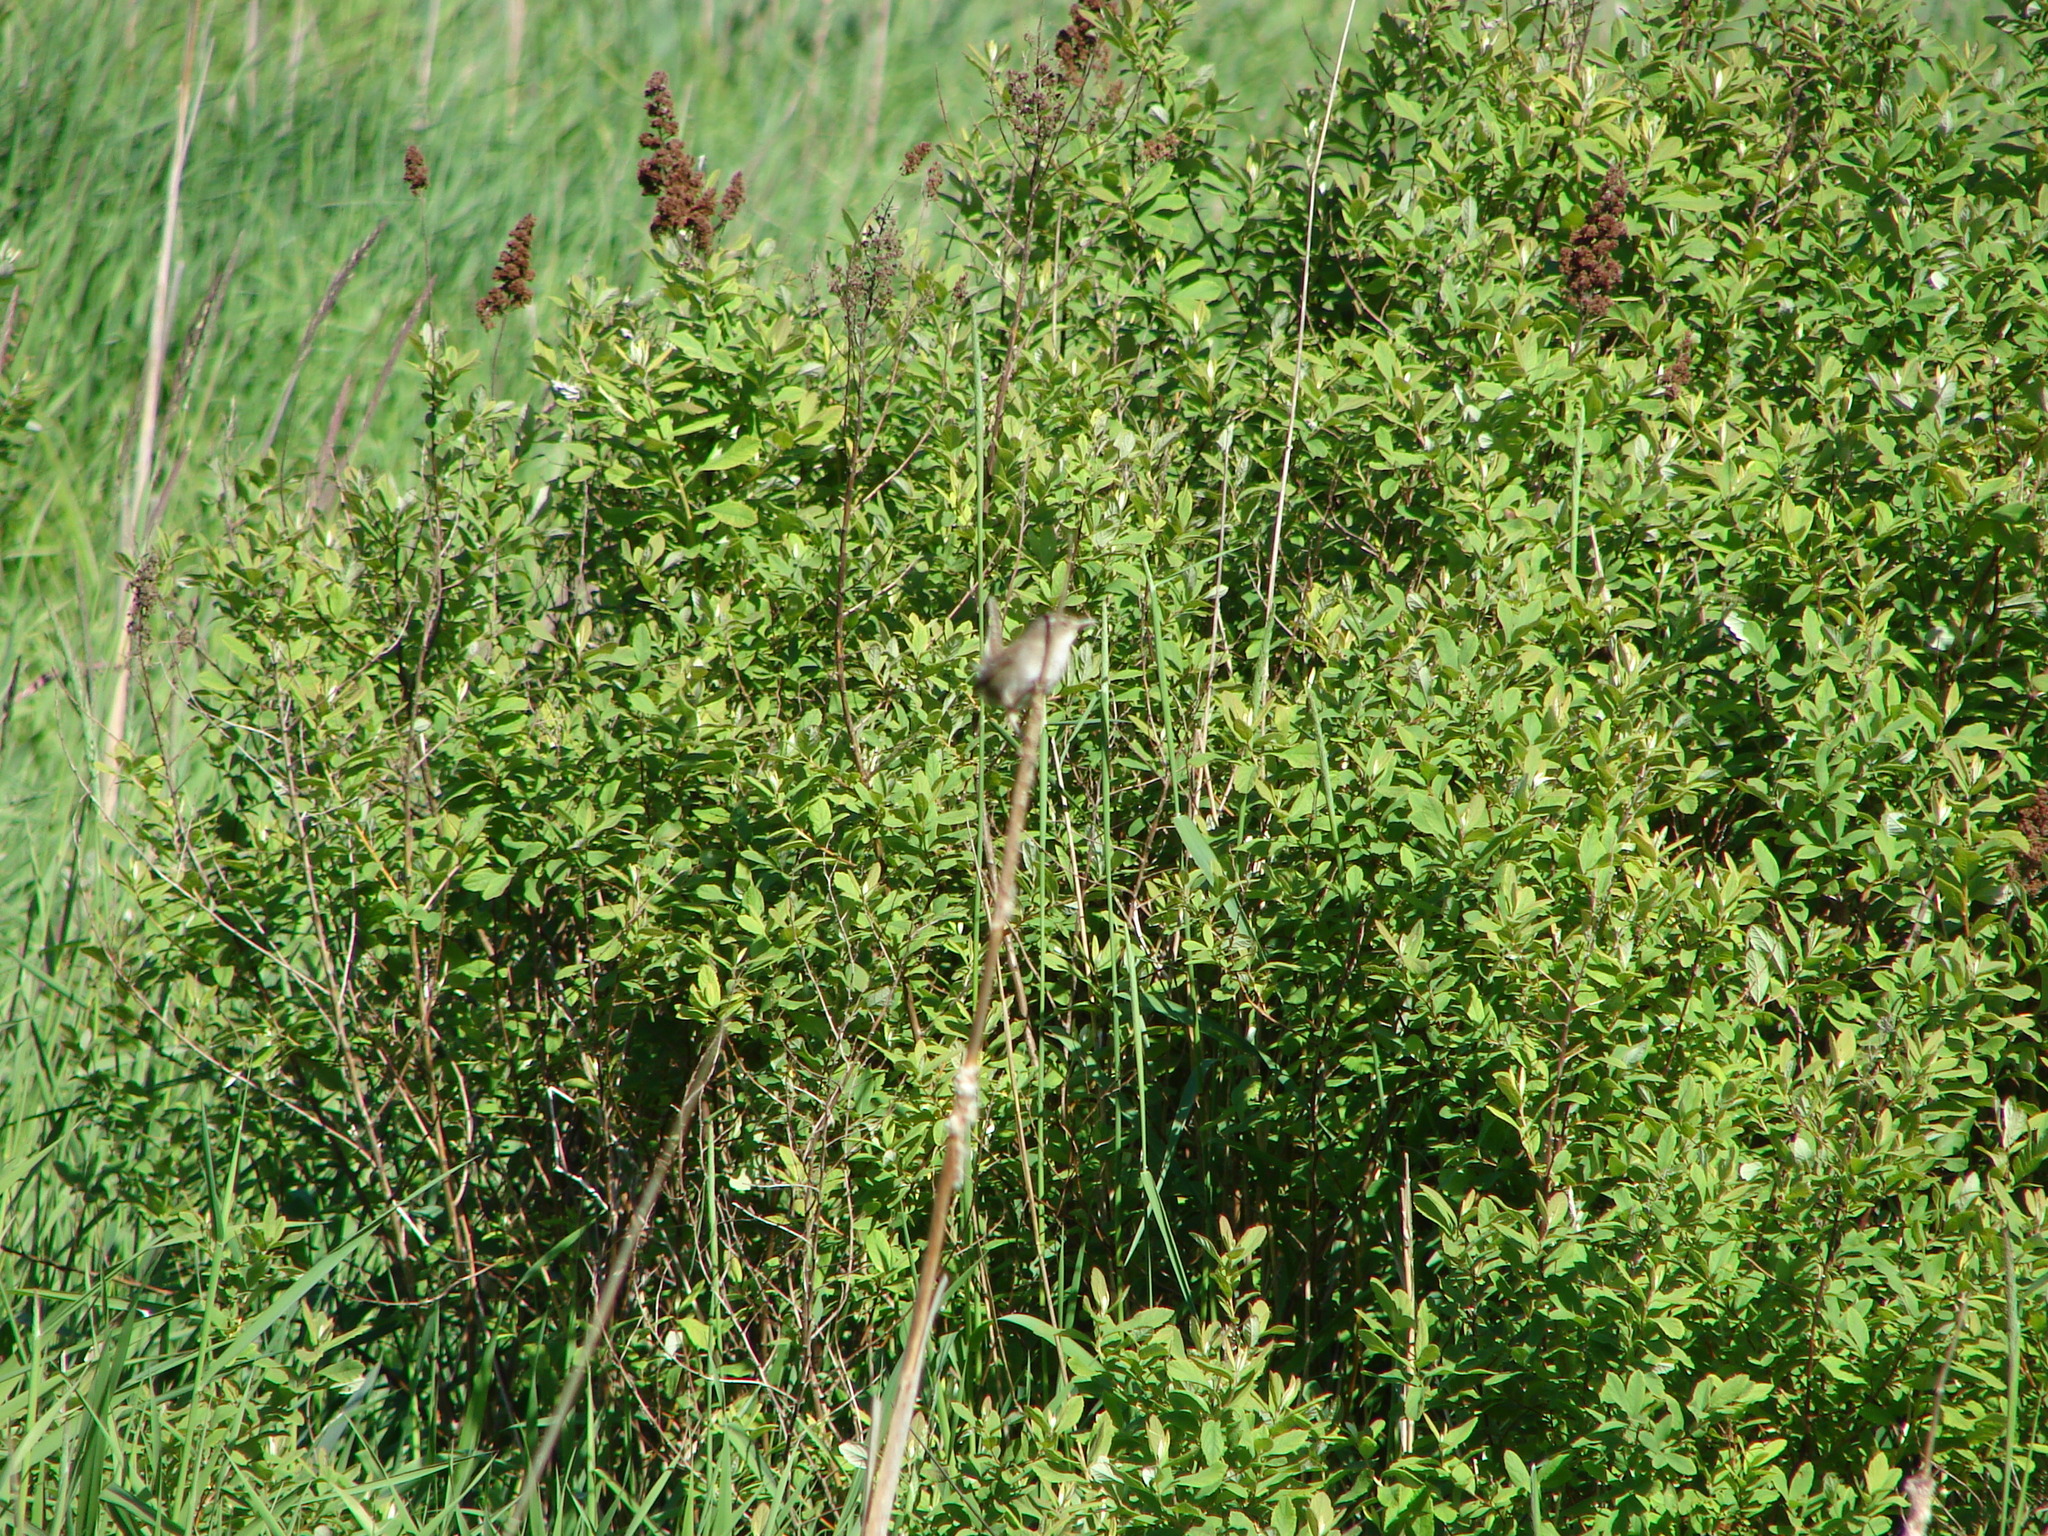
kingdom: Animalia
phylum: Chordata
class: Aves
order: Passeriformes
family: Troglodytidae
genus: Cistothorus
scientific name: Cistothorus palustris
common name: Marsh wren
